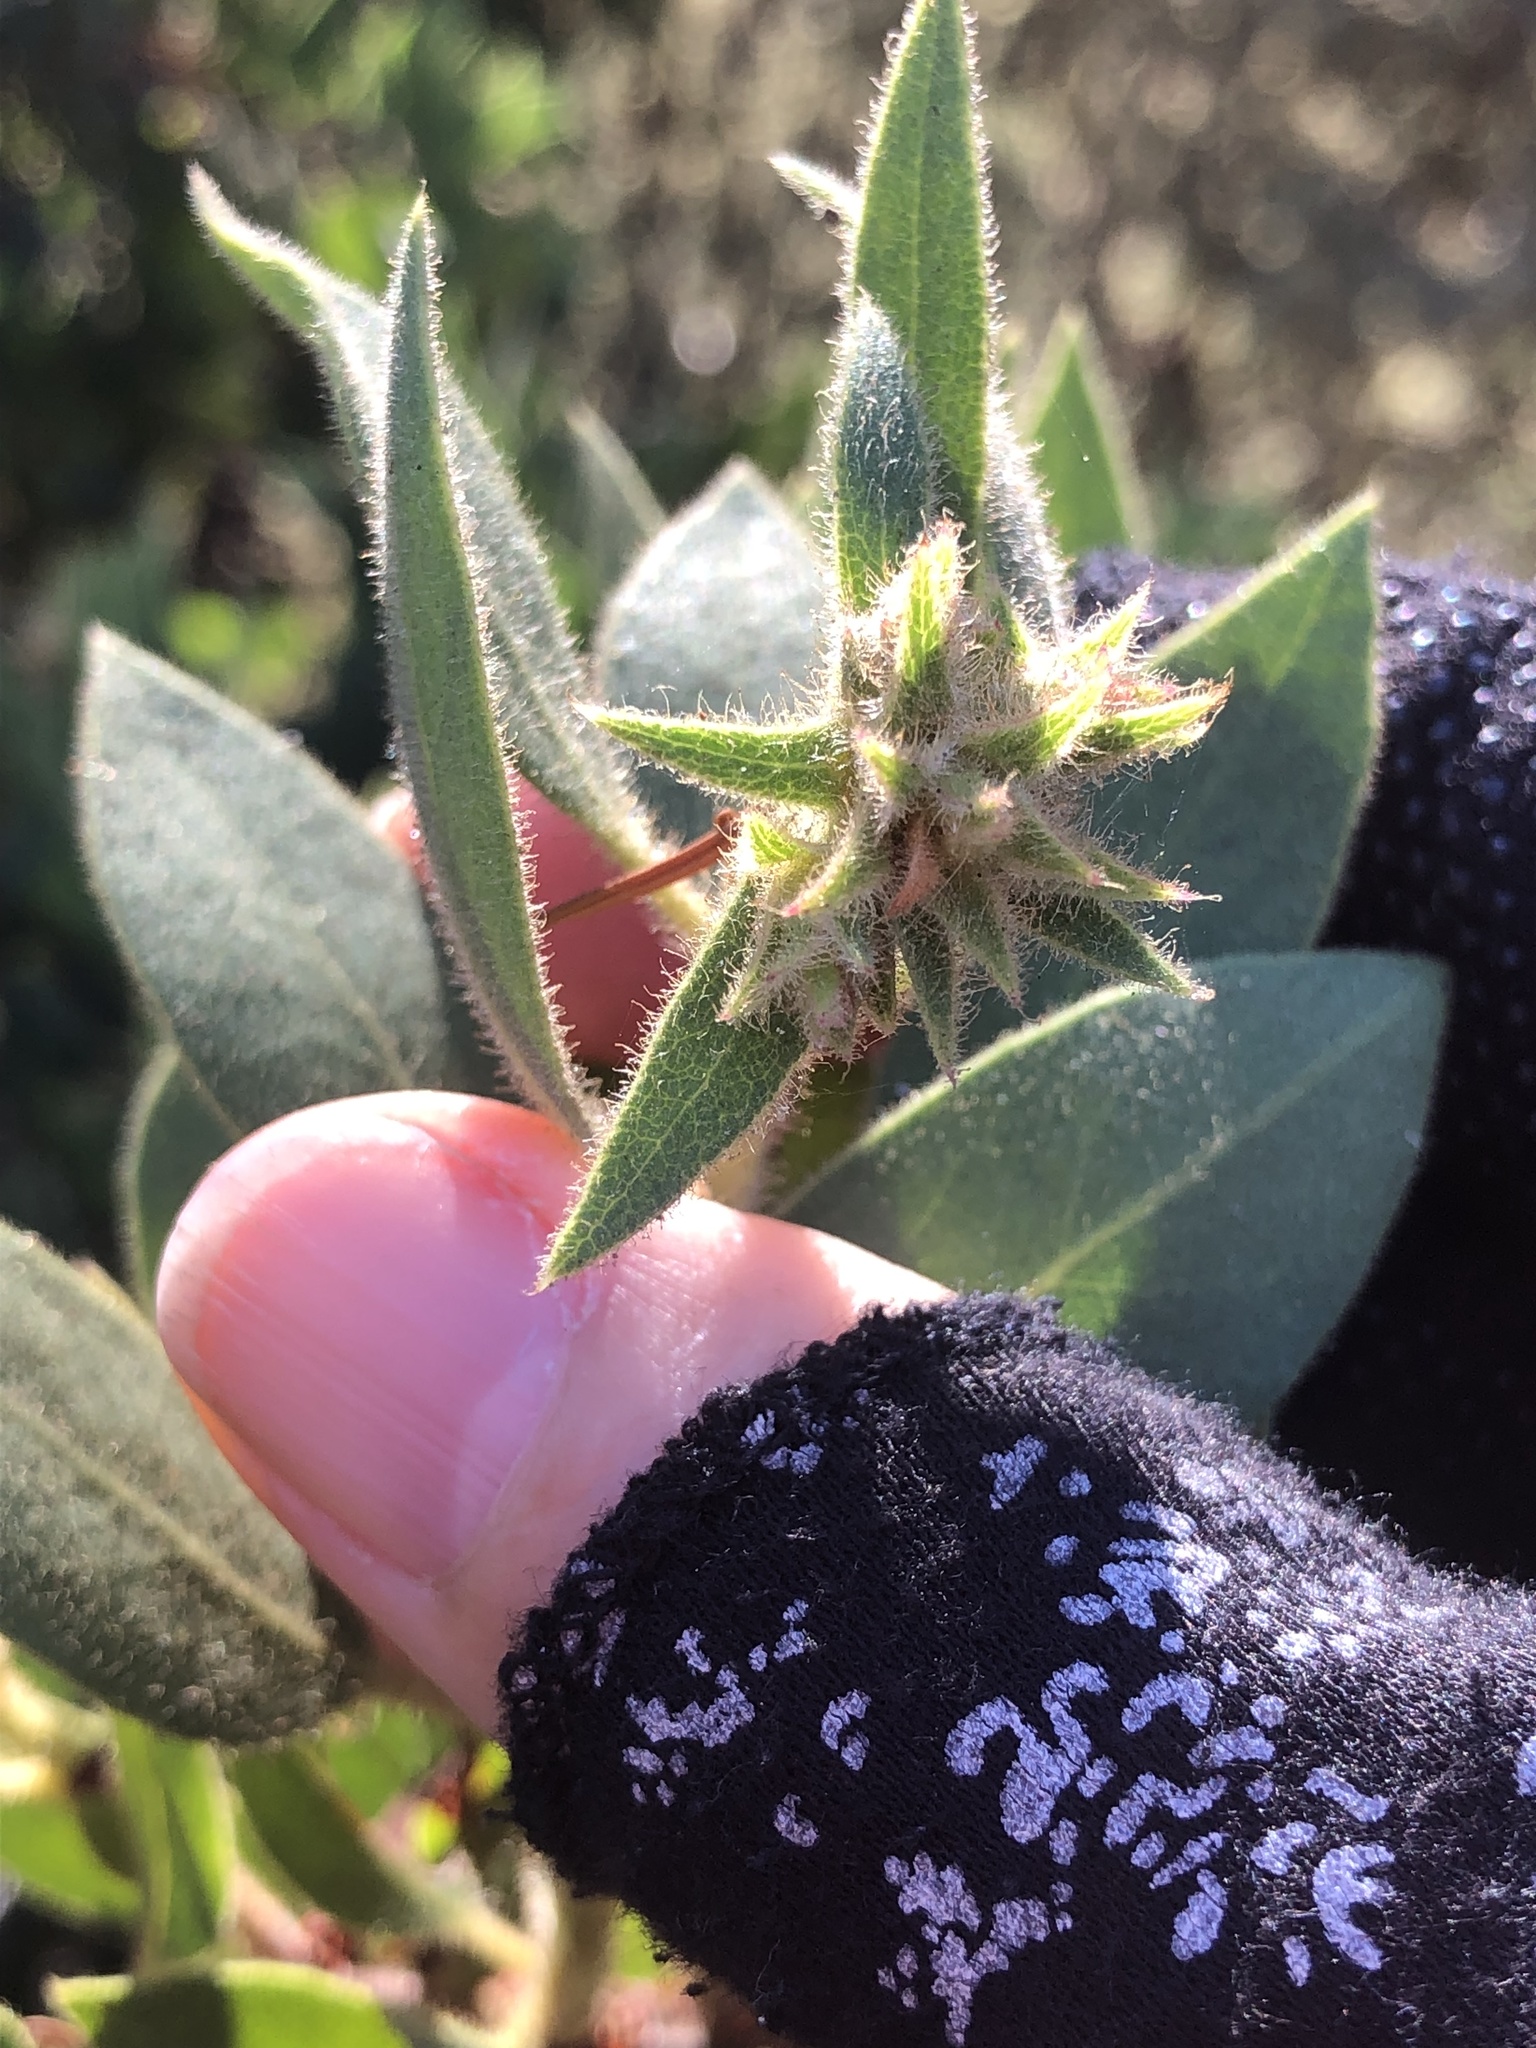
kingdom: Plantae
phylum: Tracheophyta
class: Magnoliopsida
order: Ericales
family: Ericaceae
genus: Arctostaphylos
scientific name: Arctostaphylos virgata
